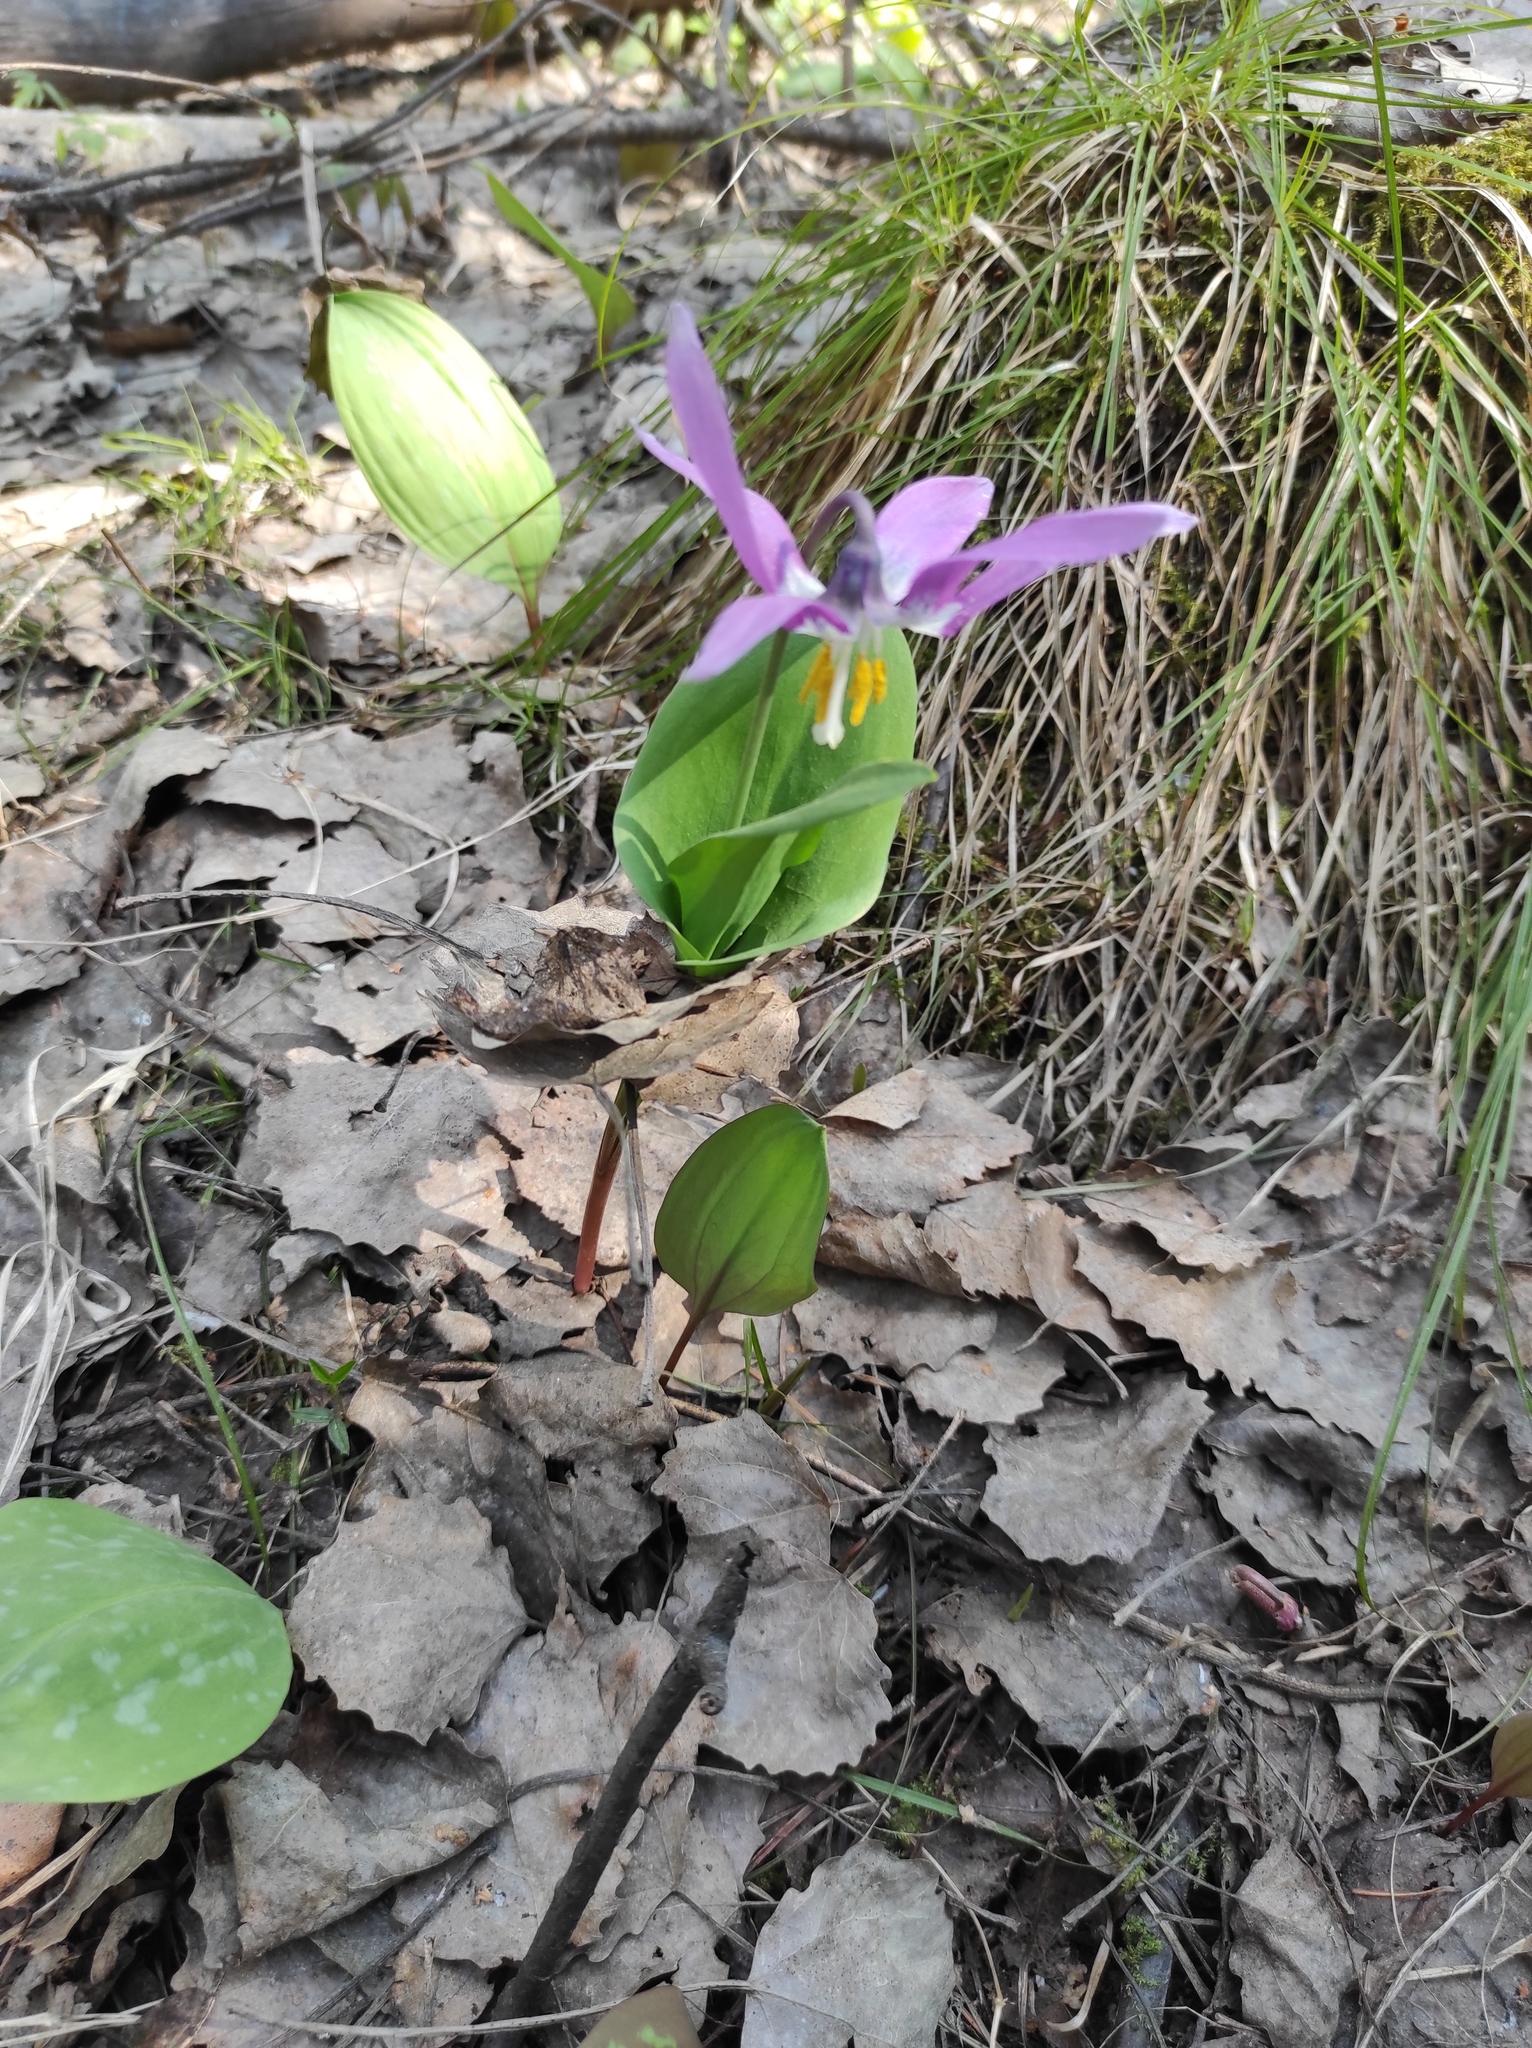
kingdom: Plantae
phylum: Tracheophyta
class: Liliopsida
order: Liliales
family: Liliaceae
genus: Erythronium
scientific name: Erythronium sibiricum
